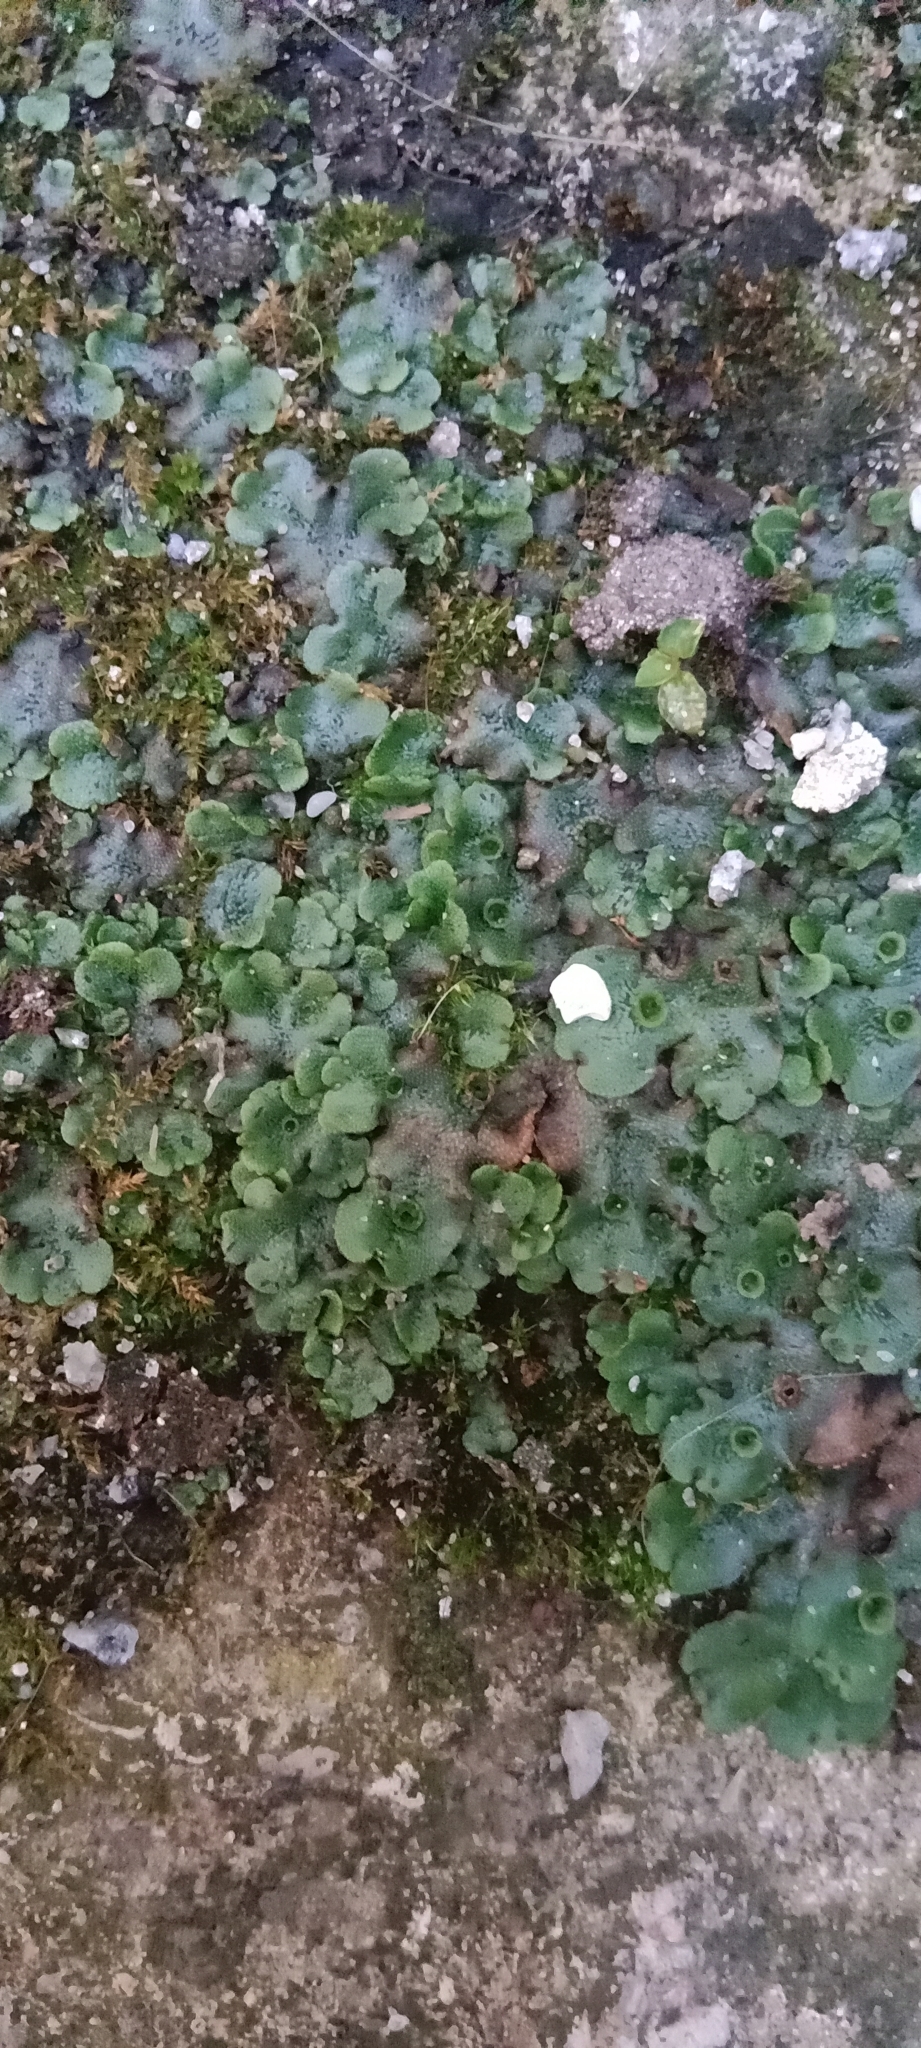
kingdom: Plantae
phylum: Marchantiophyta
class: Marchantiopsida
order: Marchantiales
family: Marchantiaceae
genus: Marchantia
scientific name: Marchantia polymorpha
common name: Common liverwort
